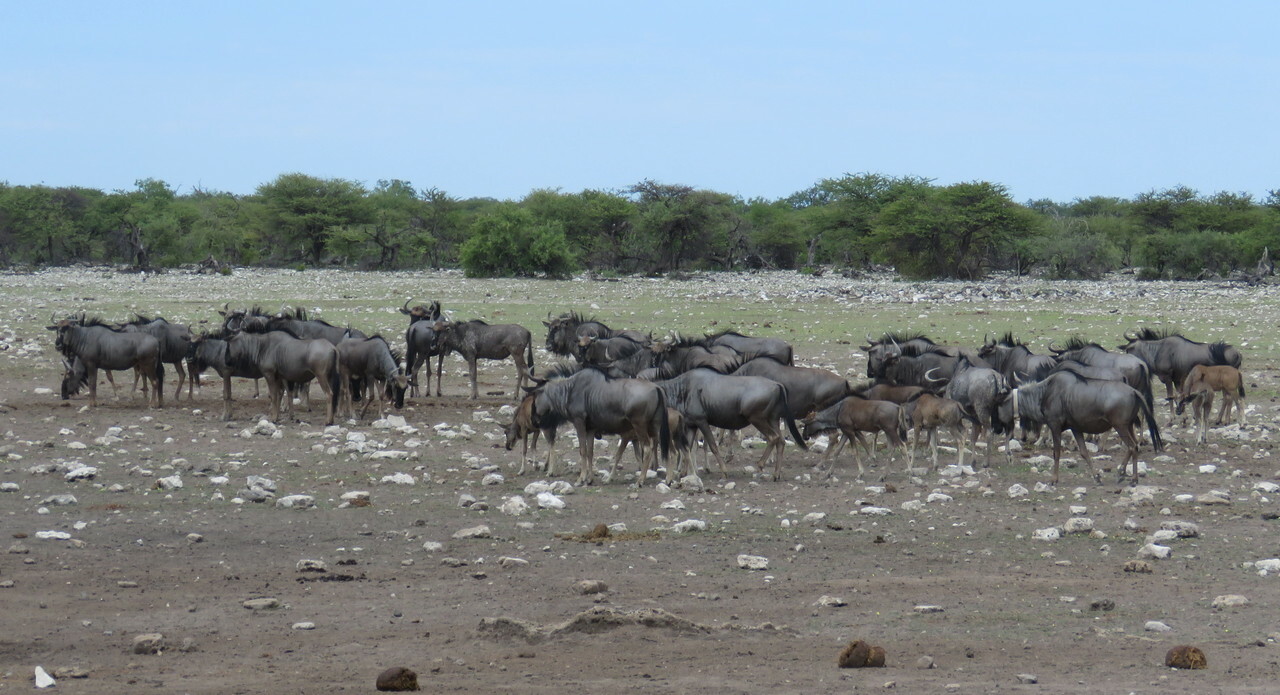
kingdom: Animalia
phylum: Chordata
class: Mammalia
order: Artiodactyla
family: Bovidae
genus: Connochaetes
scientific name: Connochaetes taurinus
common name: Blue wildebeest
